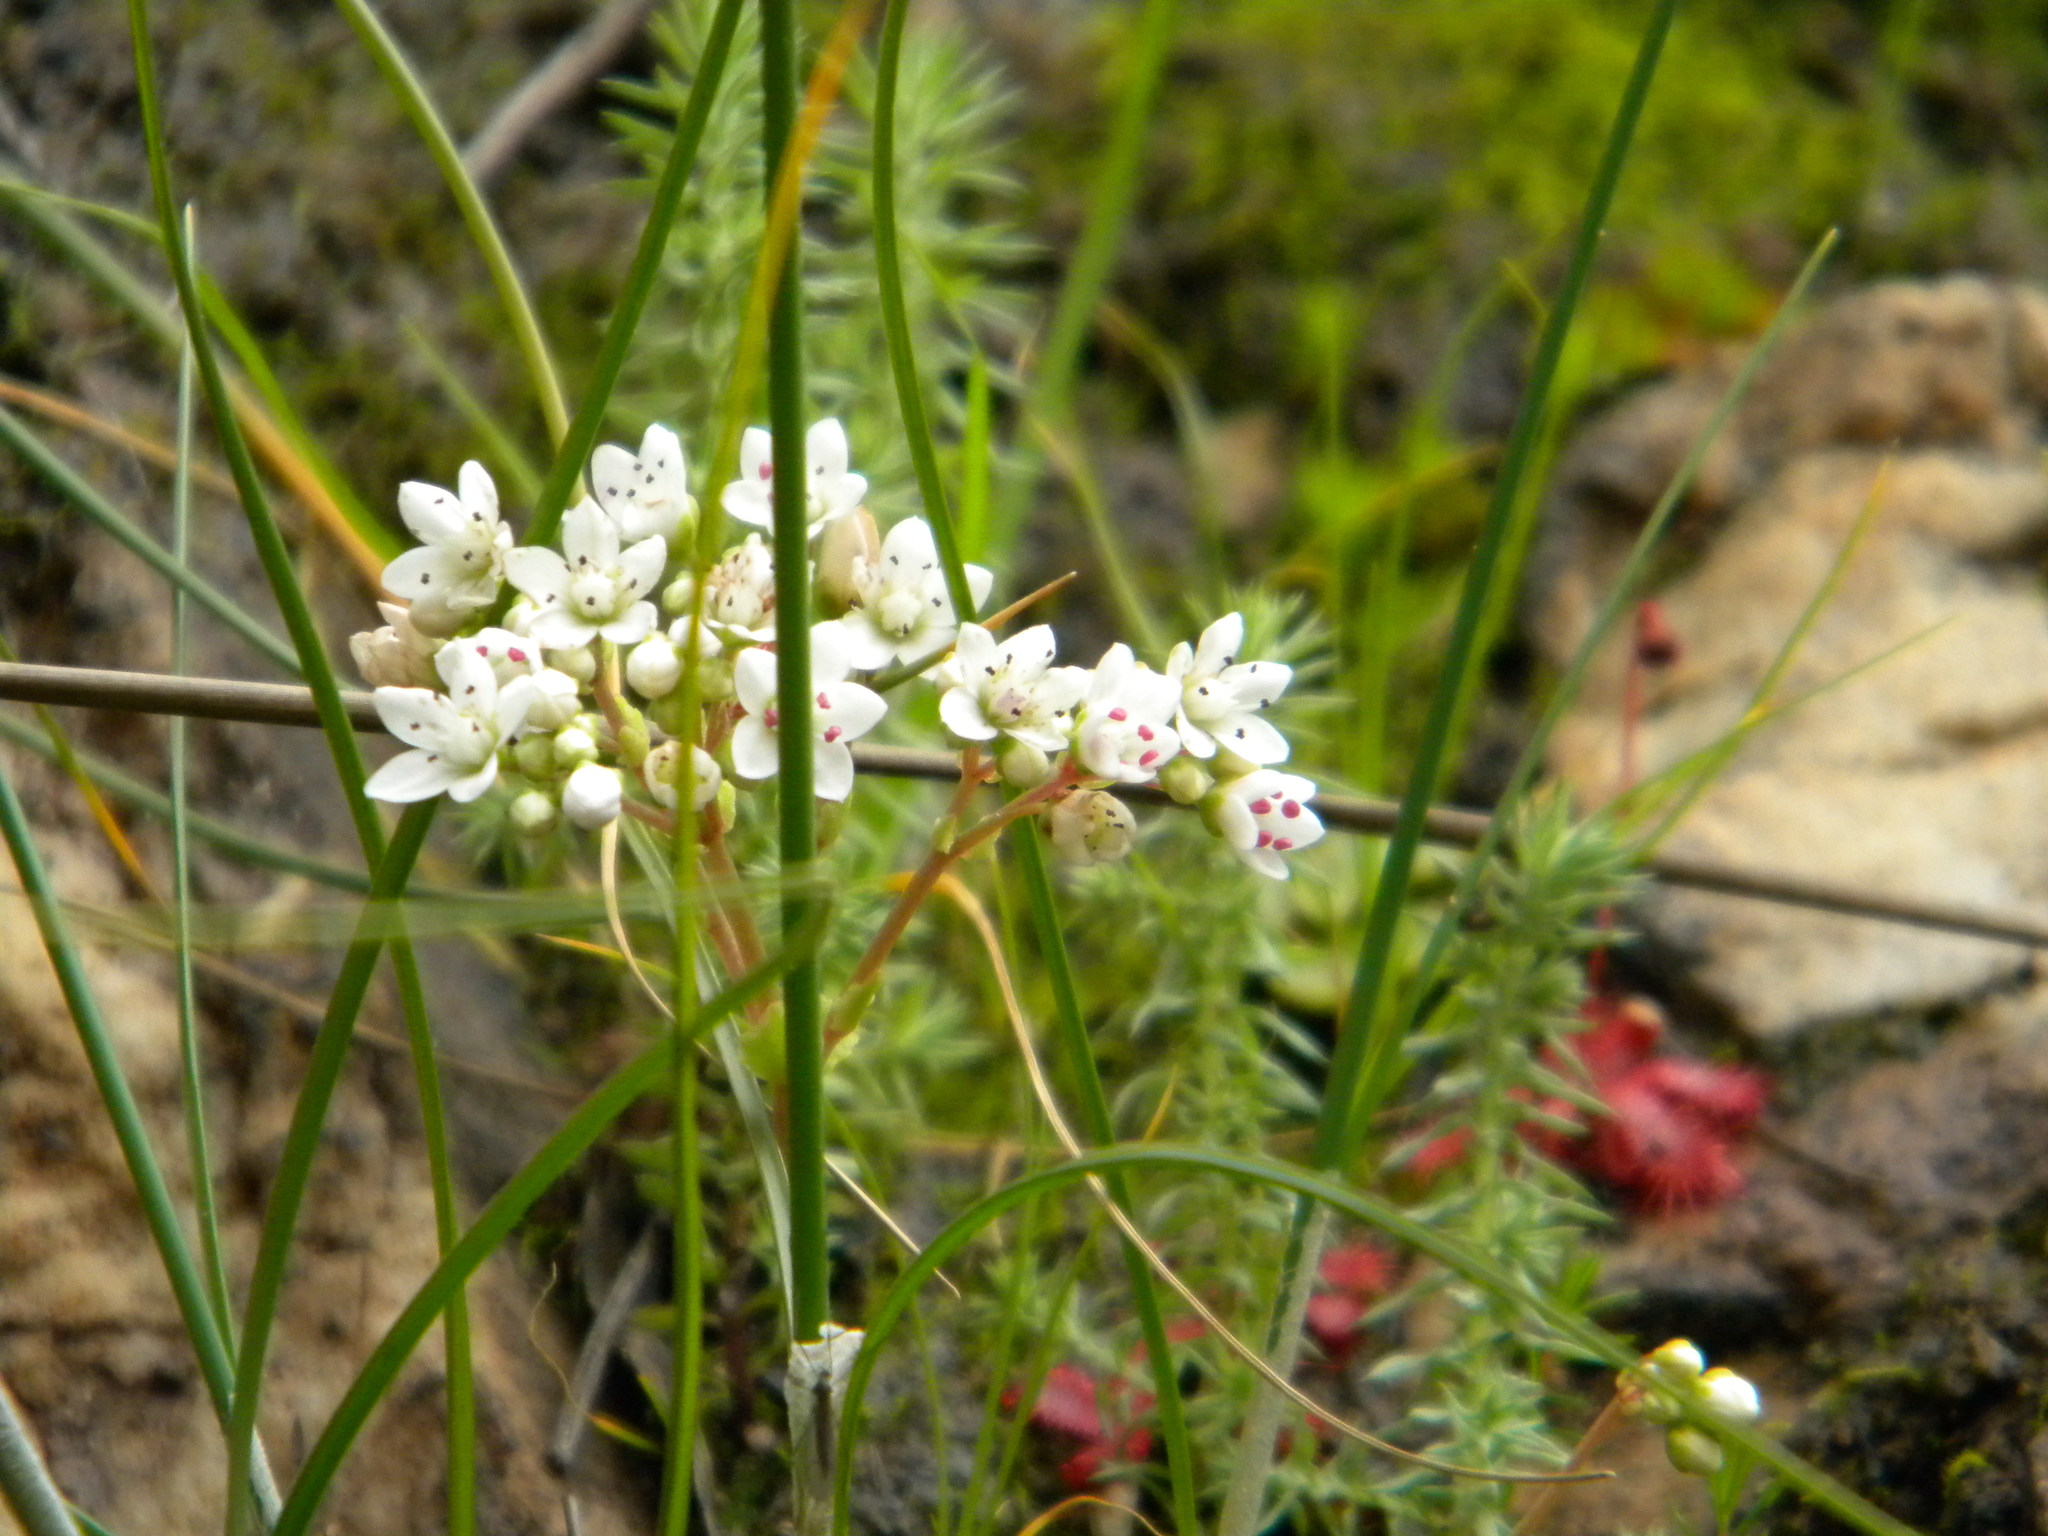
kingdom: Plantae
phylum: Tracheophyta
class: Magnoliopsida
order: Saxifragales
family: Crassulaceae
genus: Crassula
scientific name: Crassula capensis
